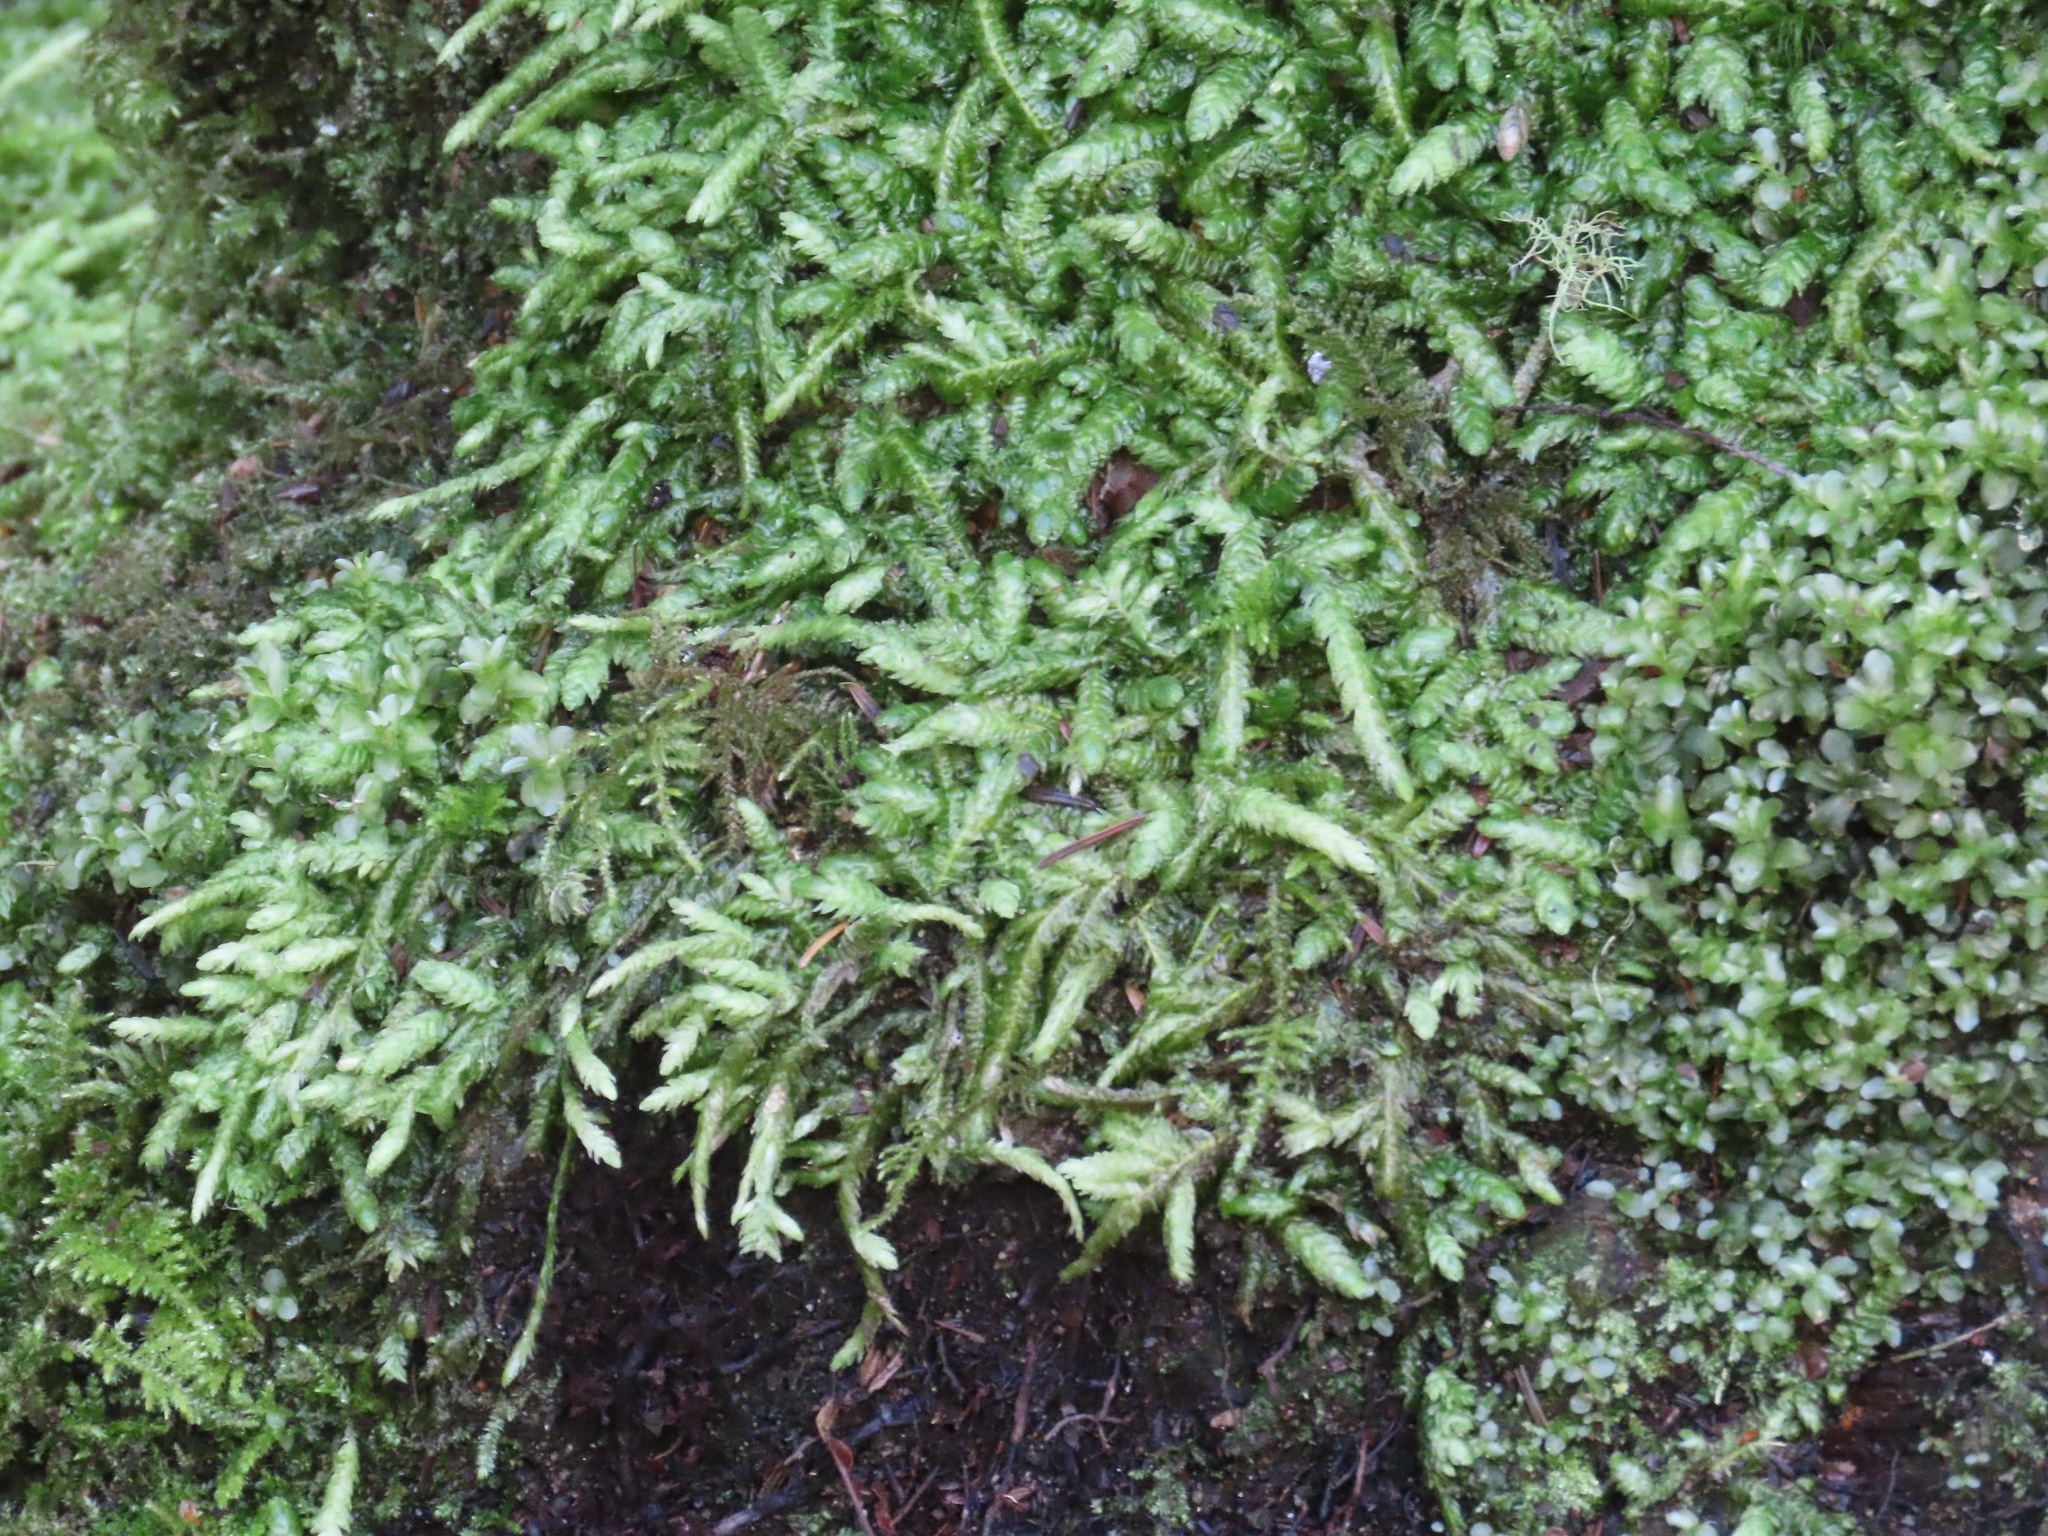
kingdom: Plantae
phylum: Bryophyta
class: Bryopsida
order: Hypnales
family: Plagiotheciaceae
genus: Plagiothecium
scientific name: Plagiothecium undulatum
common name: Waved silk-moss
